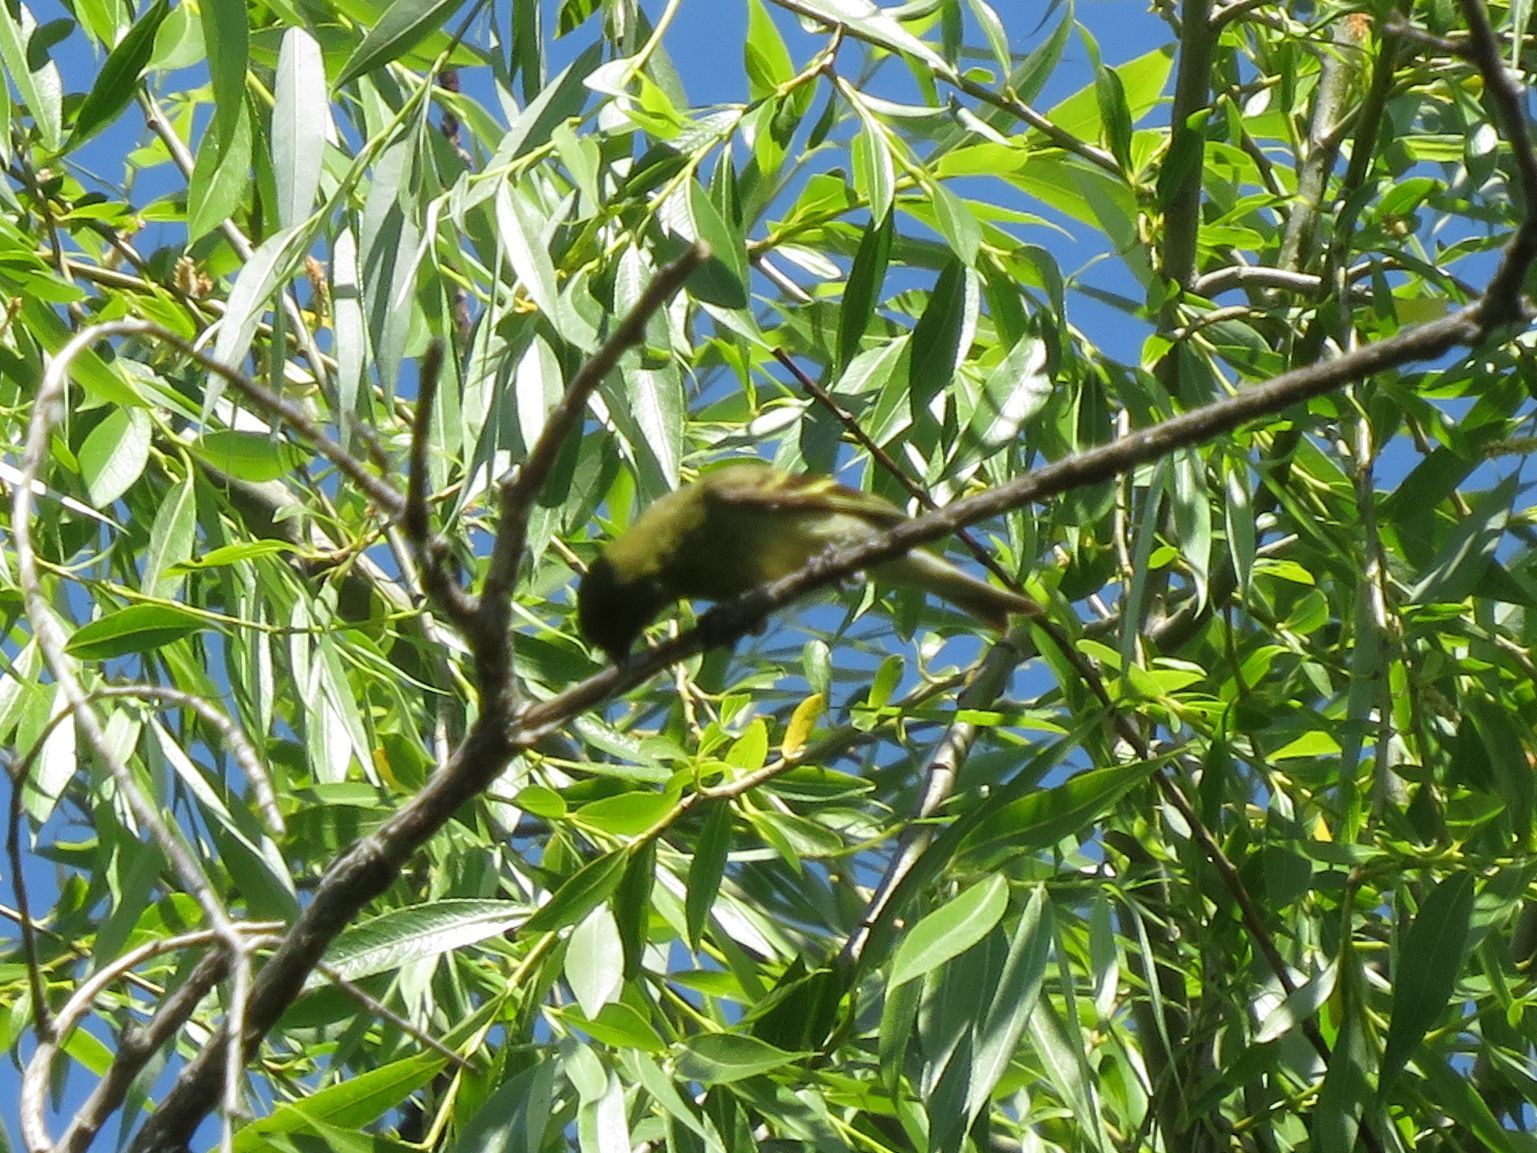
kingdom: Animalia
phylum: Chordata
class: Aves
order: Passeriformes
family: Fringillidae
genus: Spinus
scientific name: Spinus magellanicus
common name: Hooded siskin
